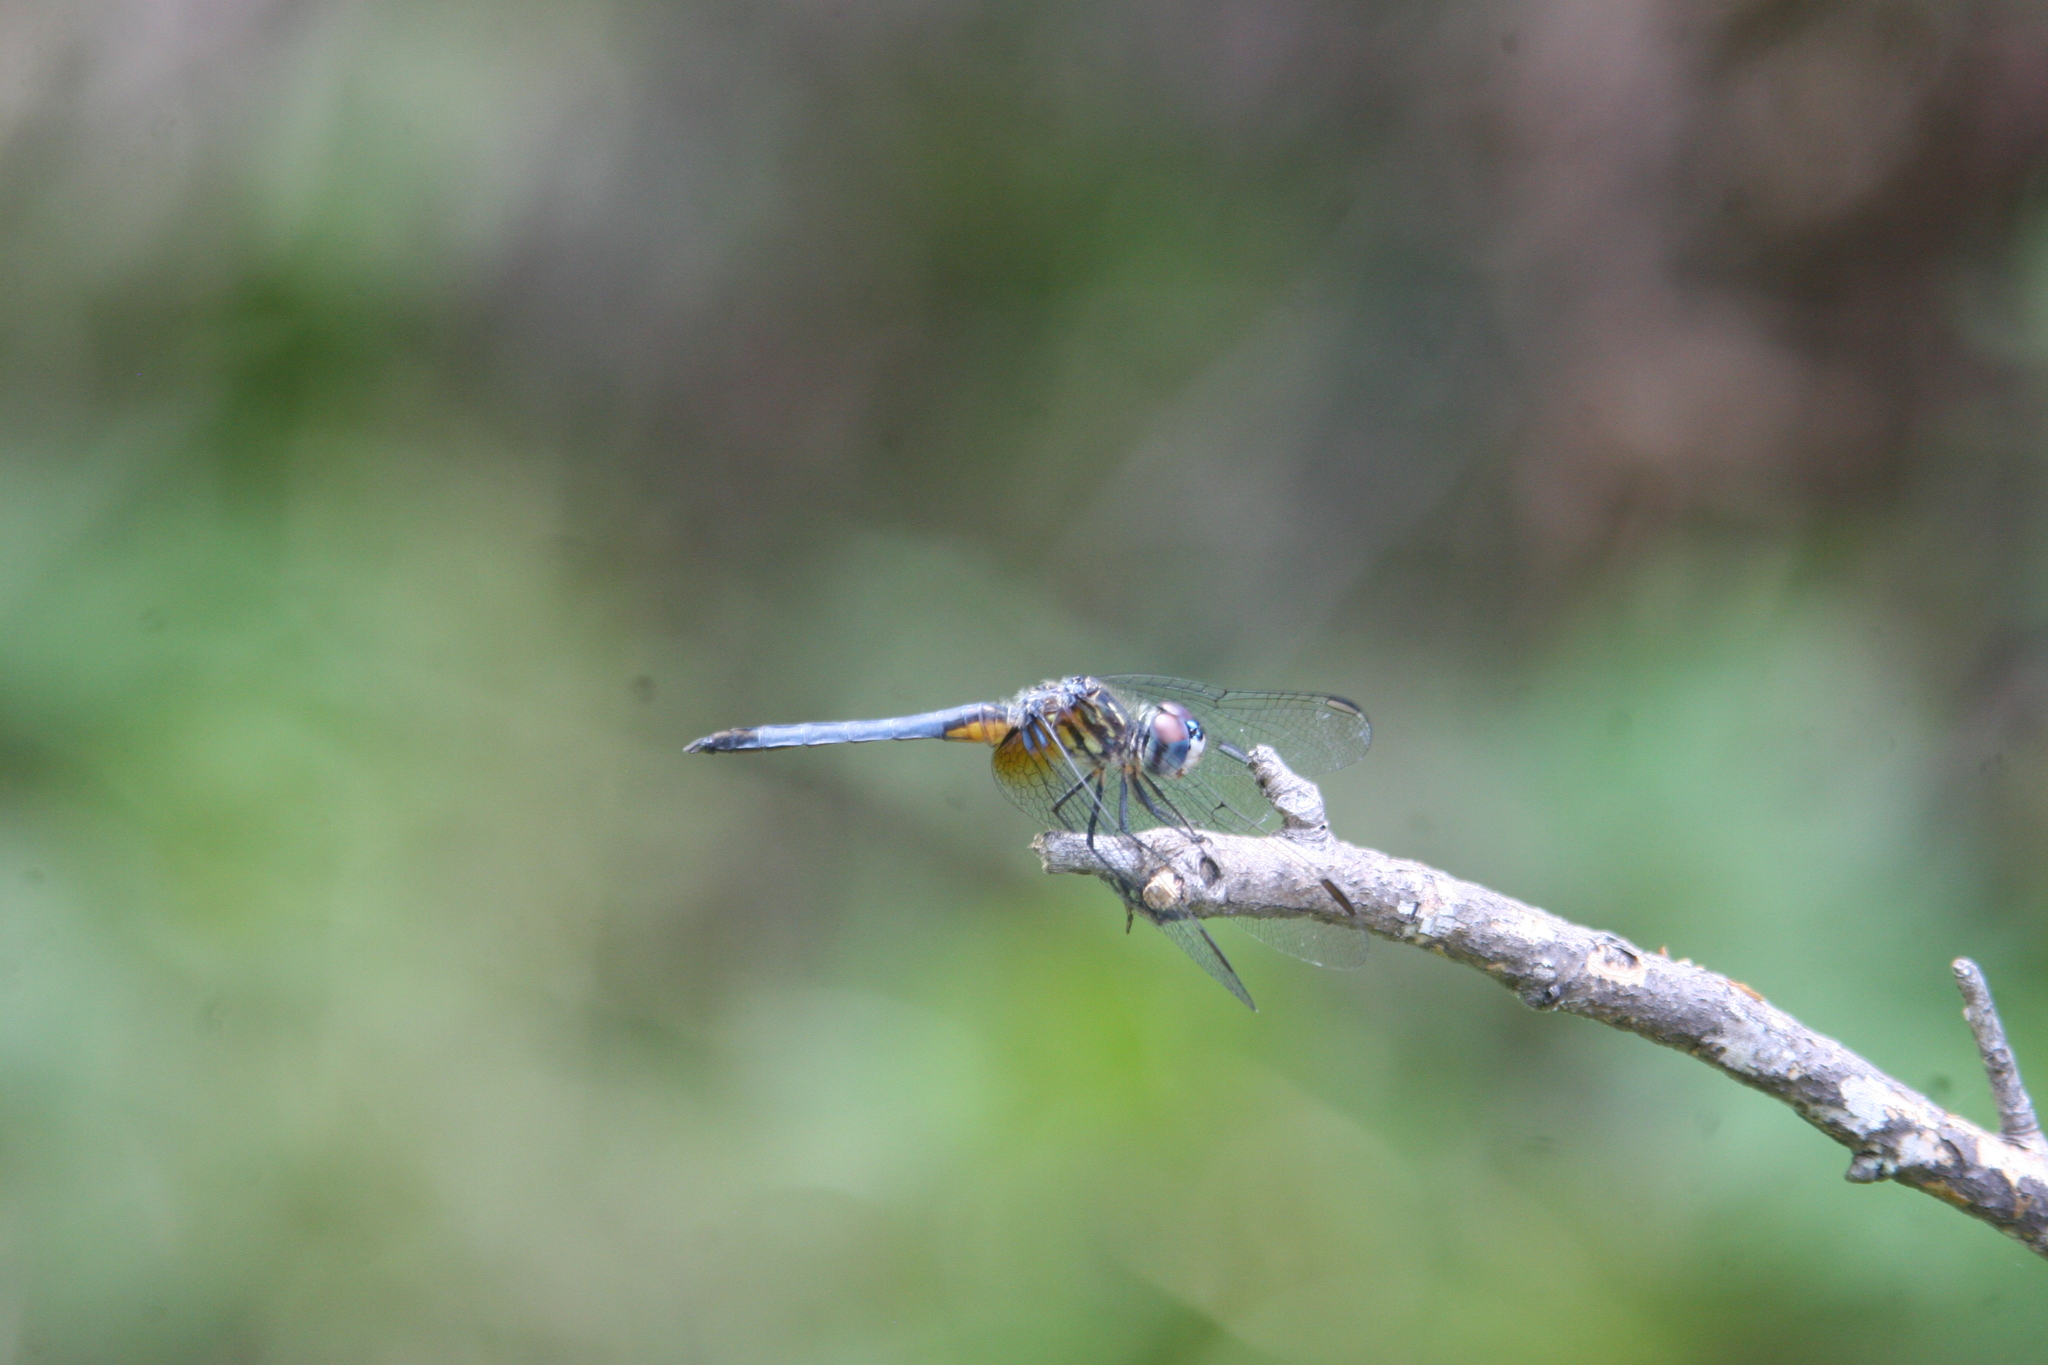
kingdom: Animalia
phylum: Arthropoda
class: Insecta
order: Odonata
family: Libellulidae
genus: Pachydiplax
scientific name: Pachydiplax longipennis
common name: Blue dasher
